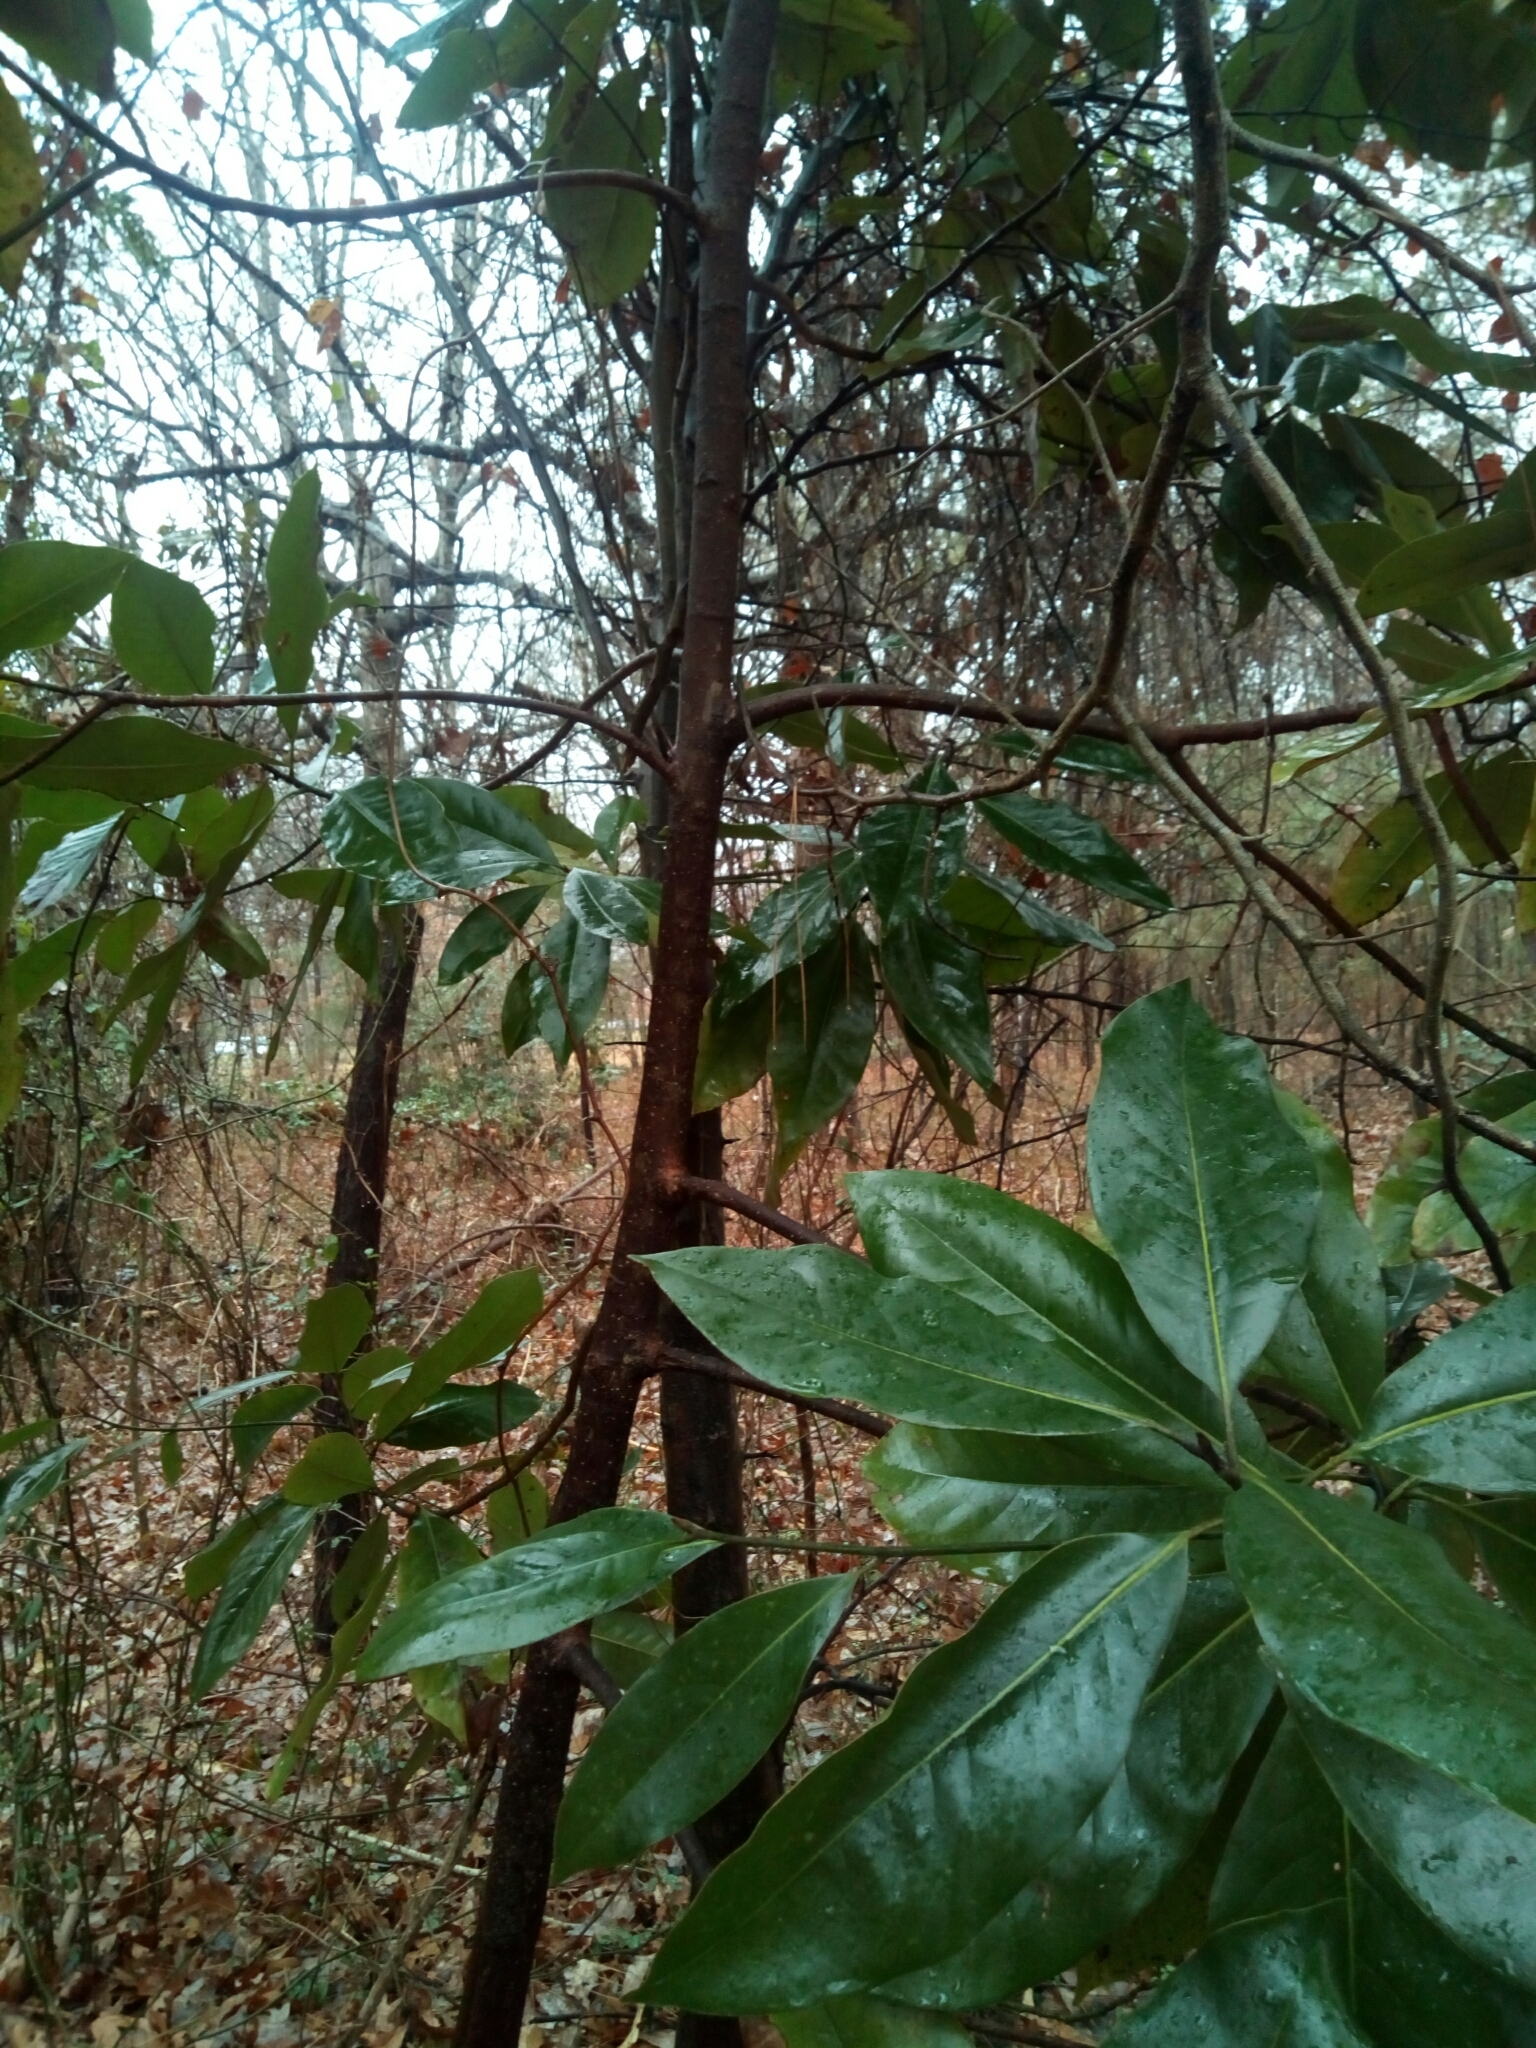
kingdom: Plantae
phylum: Tracheophyta
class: Magnoliopsida
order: Magnoliales
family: Magnoliaceae
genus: Magnolia
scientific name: Magnolia grandiflora
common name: Southern magnolia
